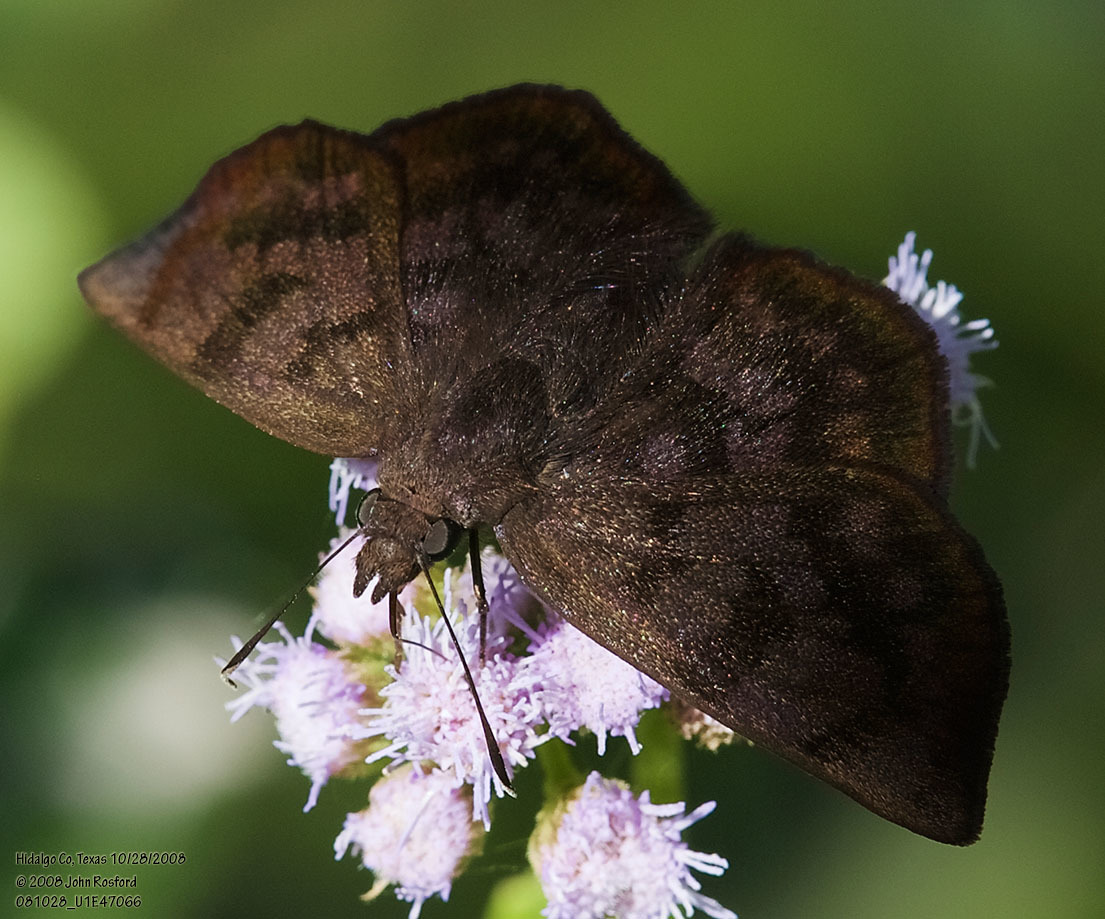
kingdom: Animalia
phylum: Arthropoda
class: Insecta
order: Lepidoptera
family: Hesperiidae
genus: Pellicia
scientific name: Pellicia costimacula
